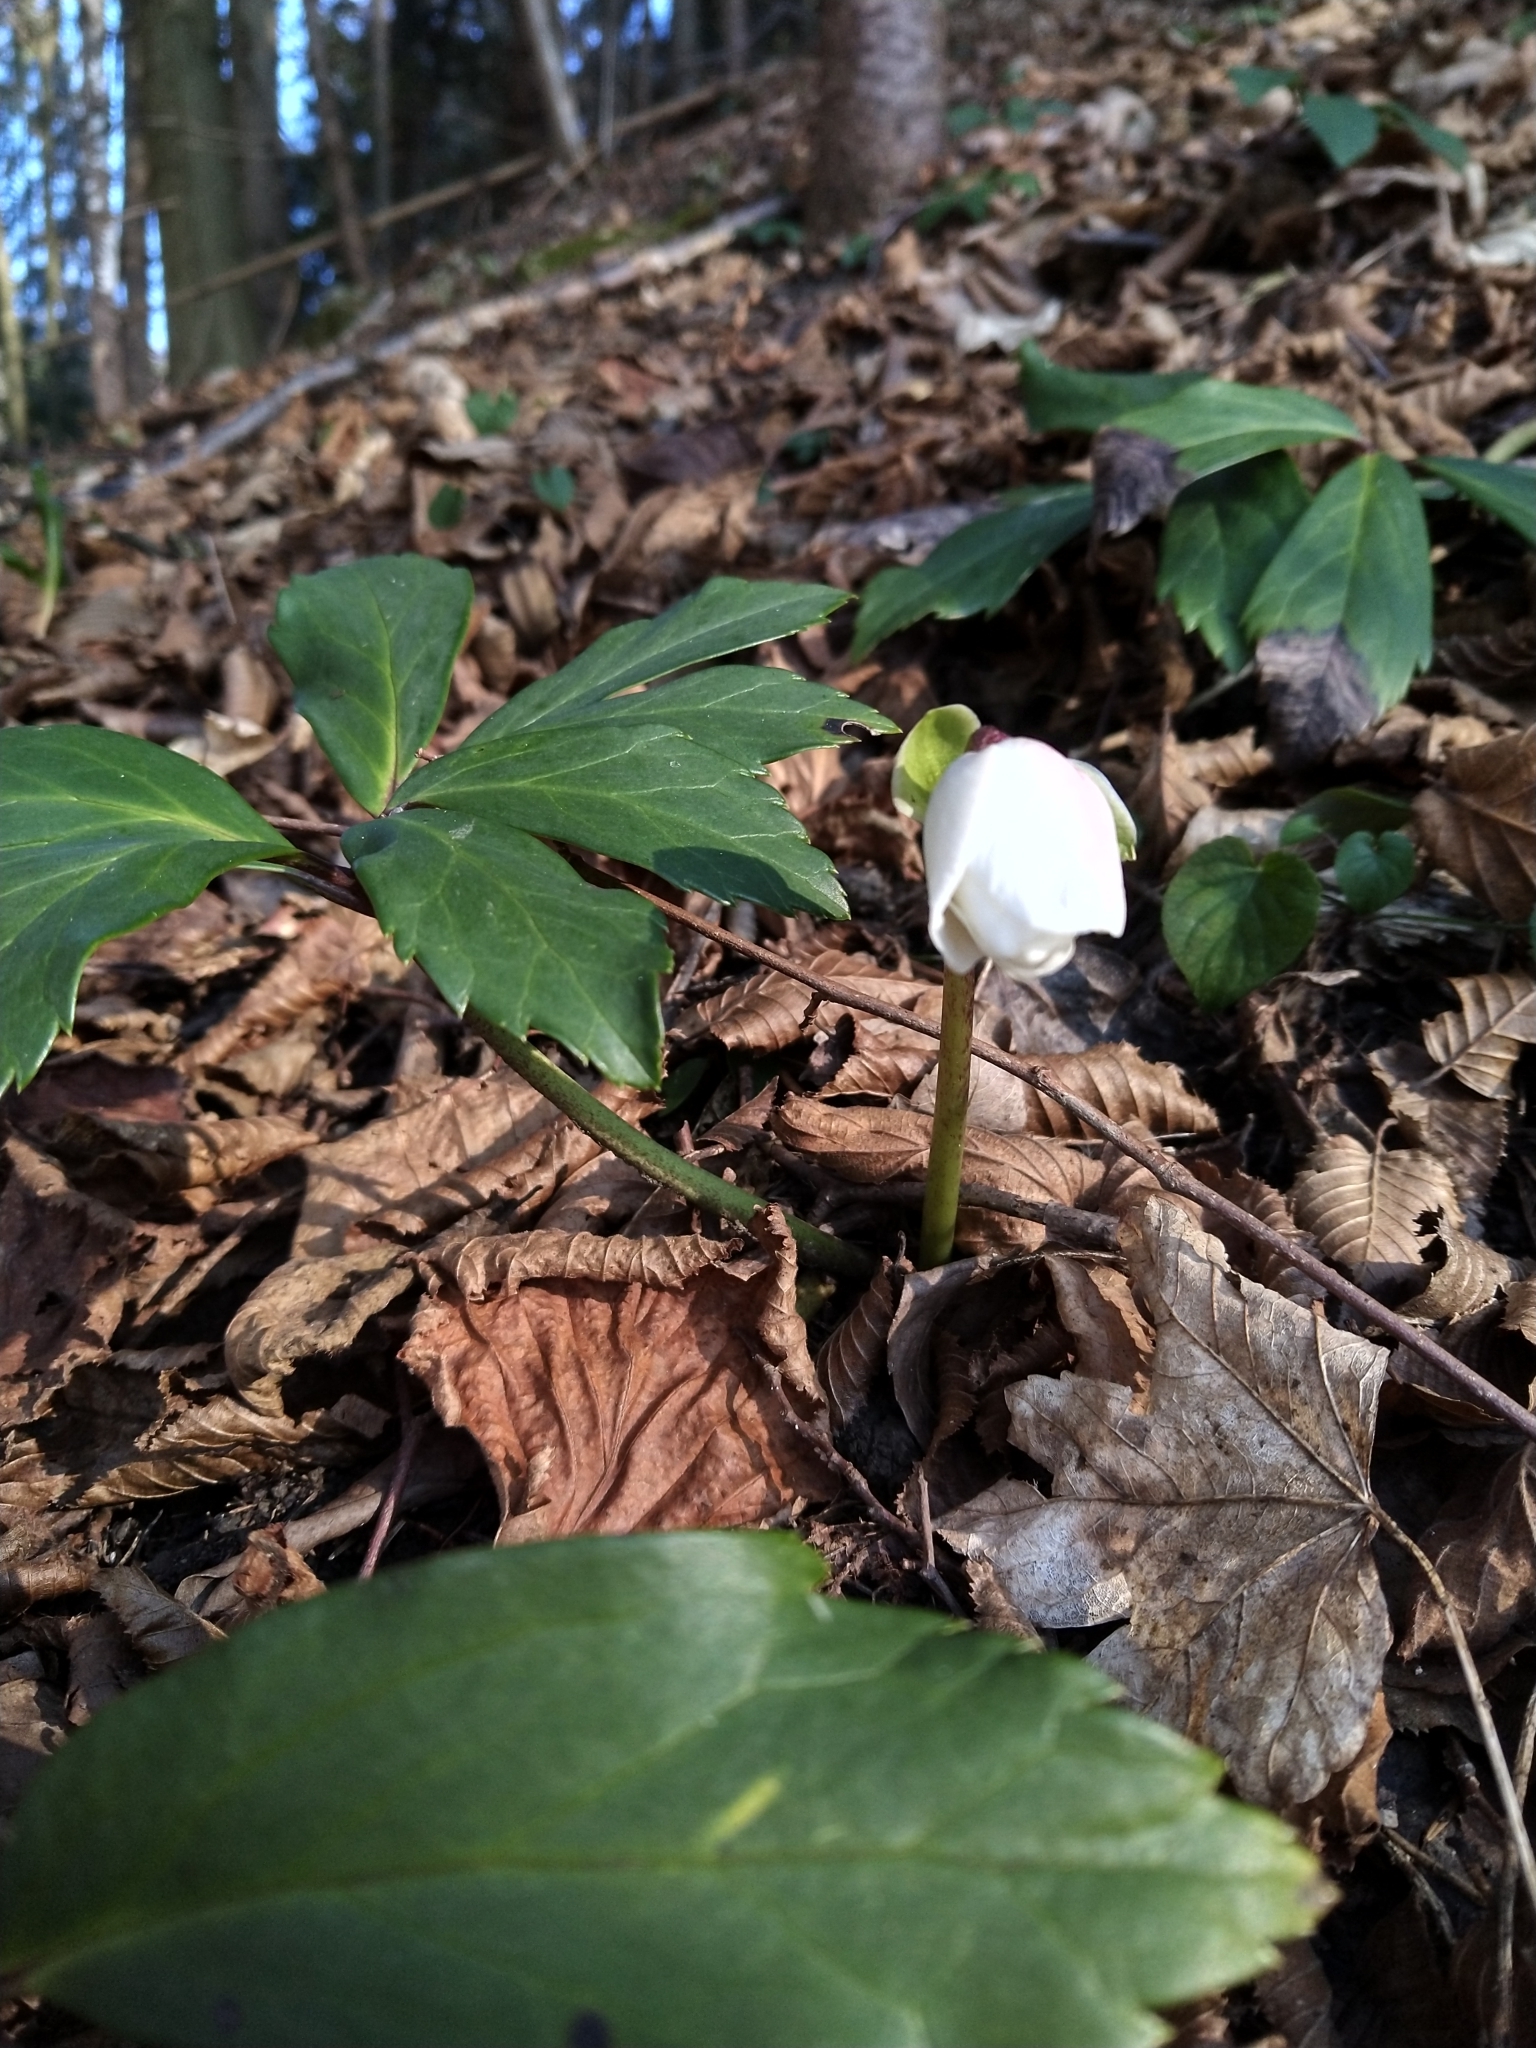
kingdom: Plantae
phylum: Tracheophyta
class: Magnoliopsida
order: Ranunculales
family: Ranunculaceae
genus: Helleborus
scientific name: Helleborus niger
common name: Black hellebore
